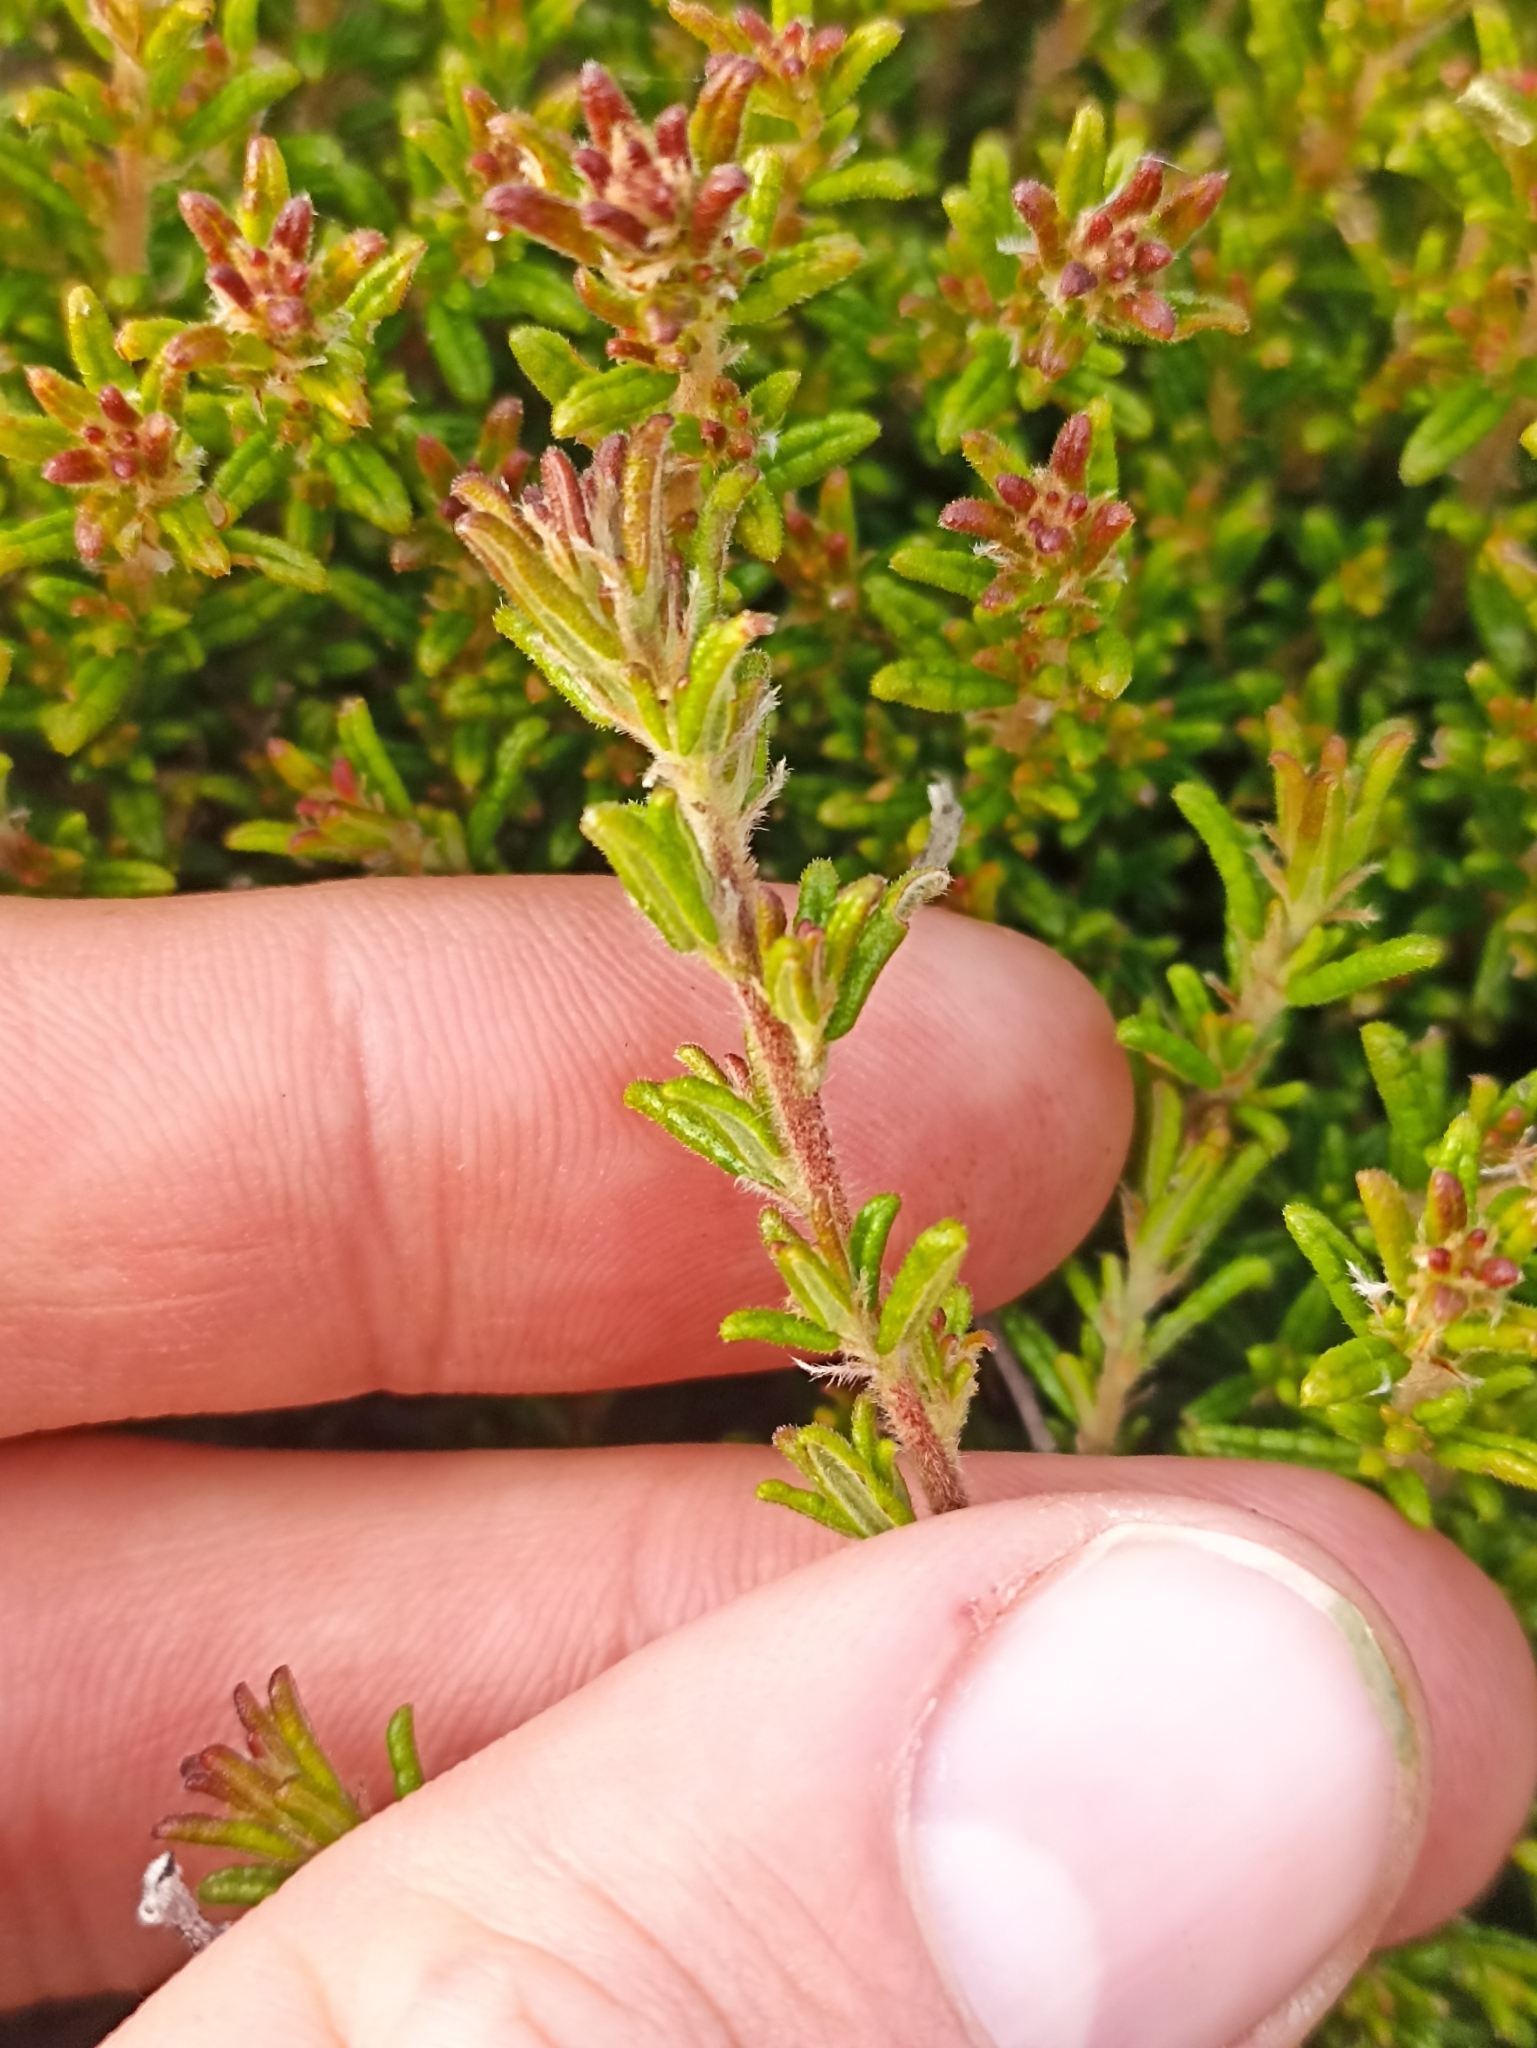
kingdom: Plantae
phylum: Tracheophyta
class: Magnoliopsida
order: Rosales
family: Rhamnaceae
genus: Pomaderris
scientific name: Pomaderris amoena
